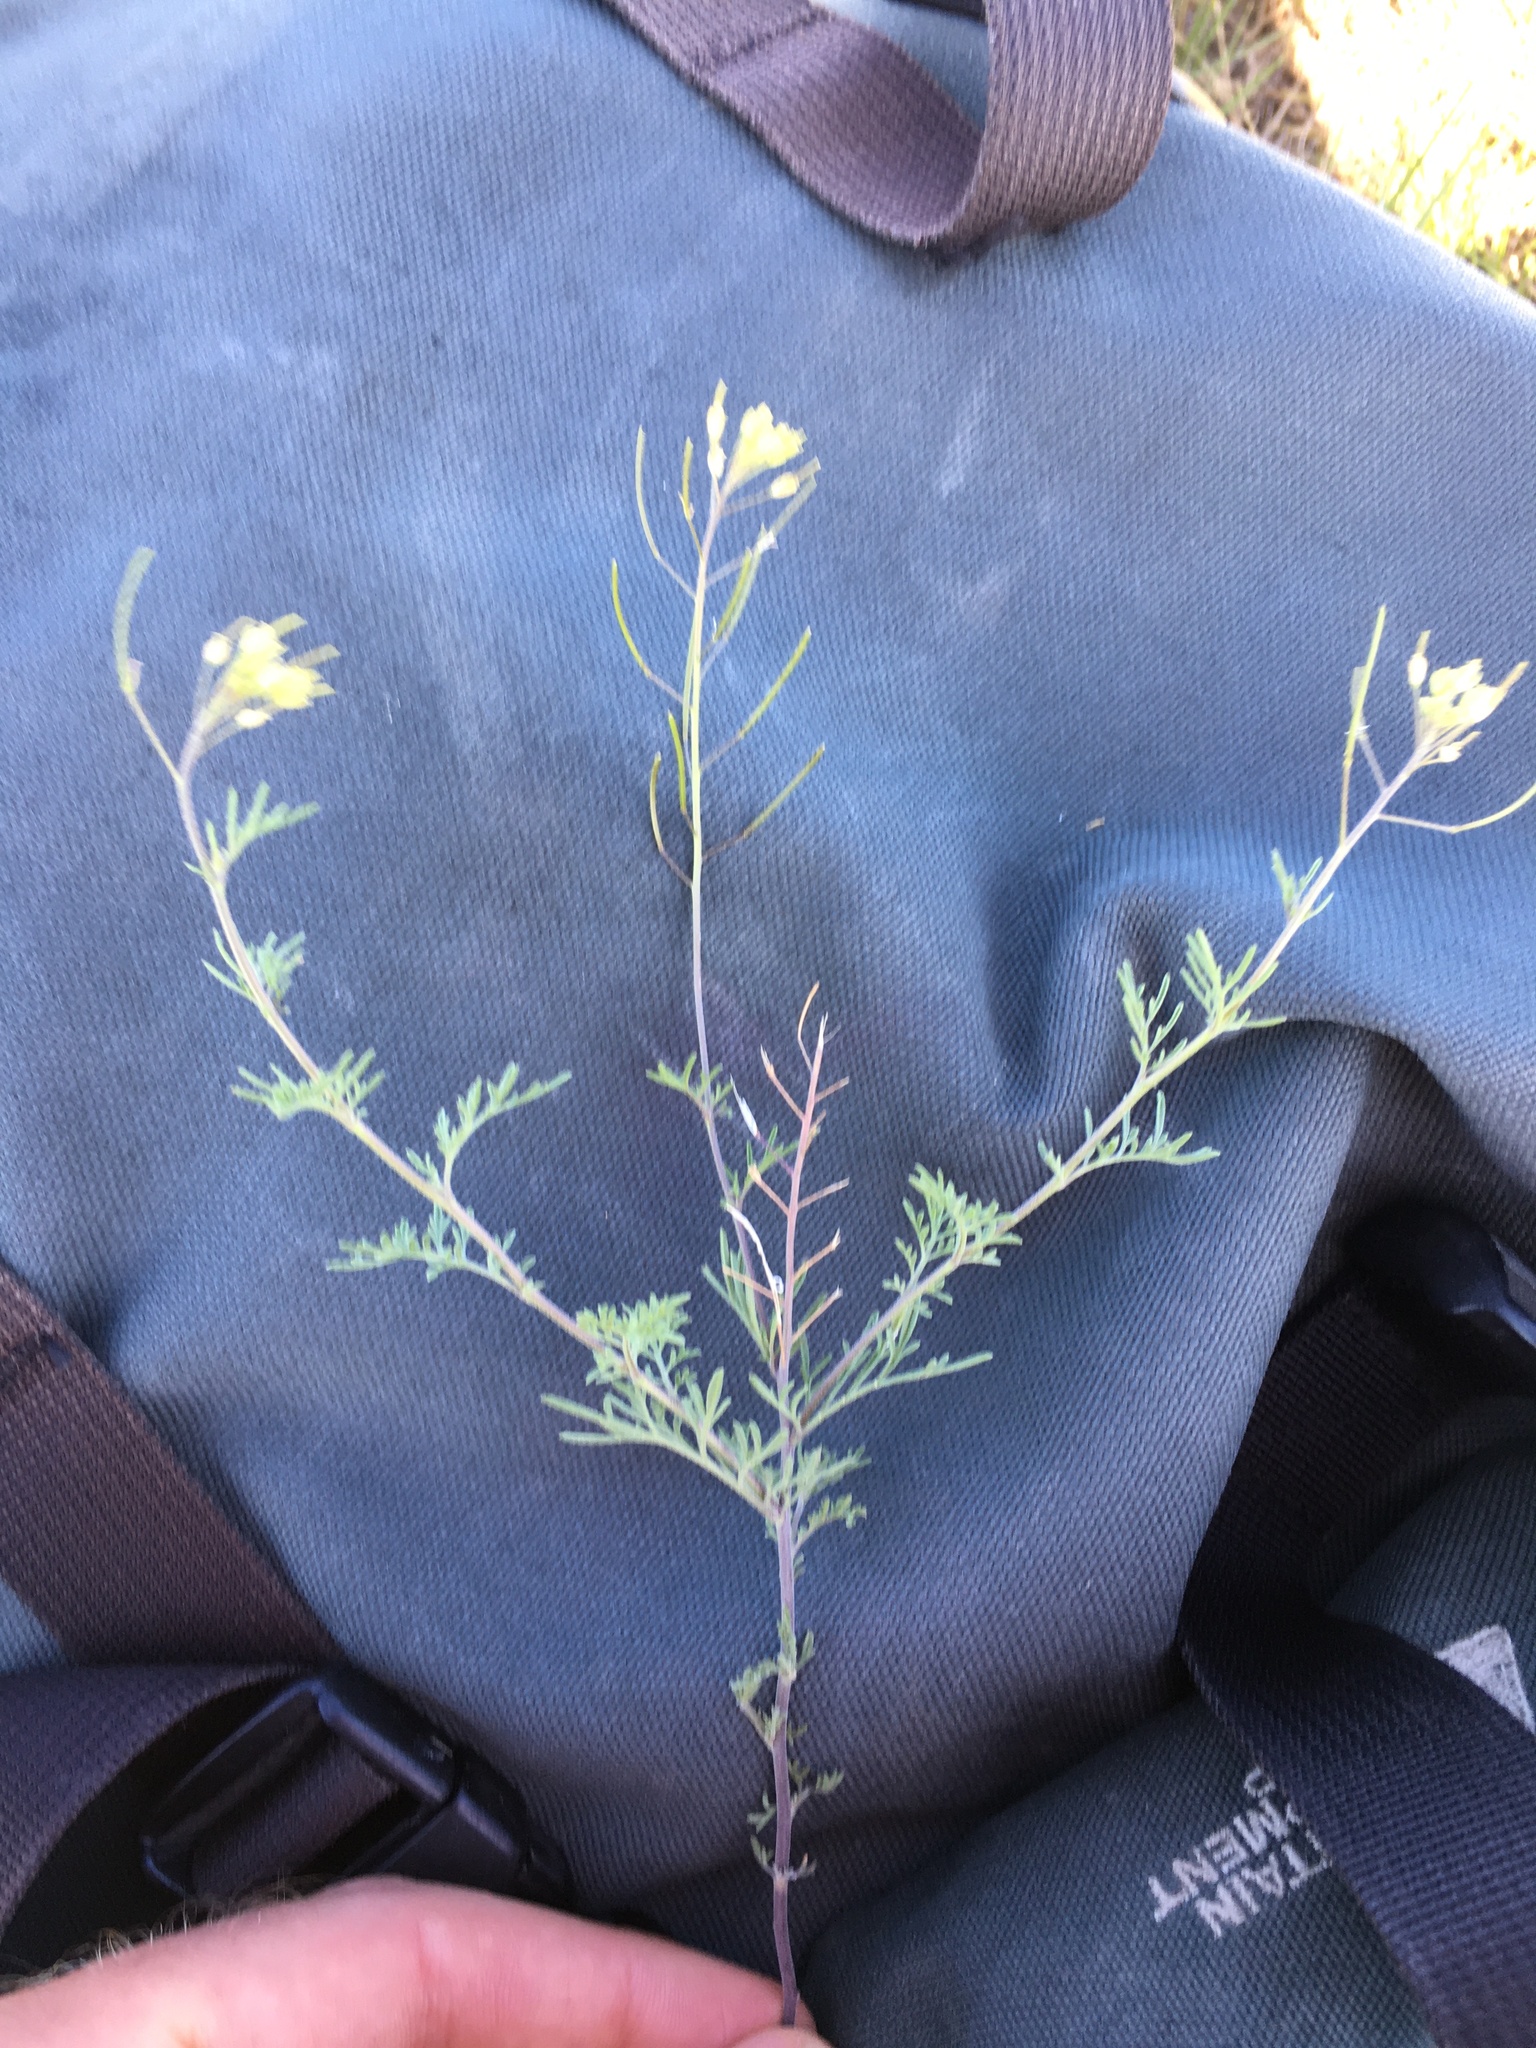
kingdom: Plantae
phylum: Tracheophyta
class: Magnoliopsida
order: Brassicales
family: Brassicaceae
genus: Descurainia
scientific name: Descurainia sophia
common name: Flixweed
